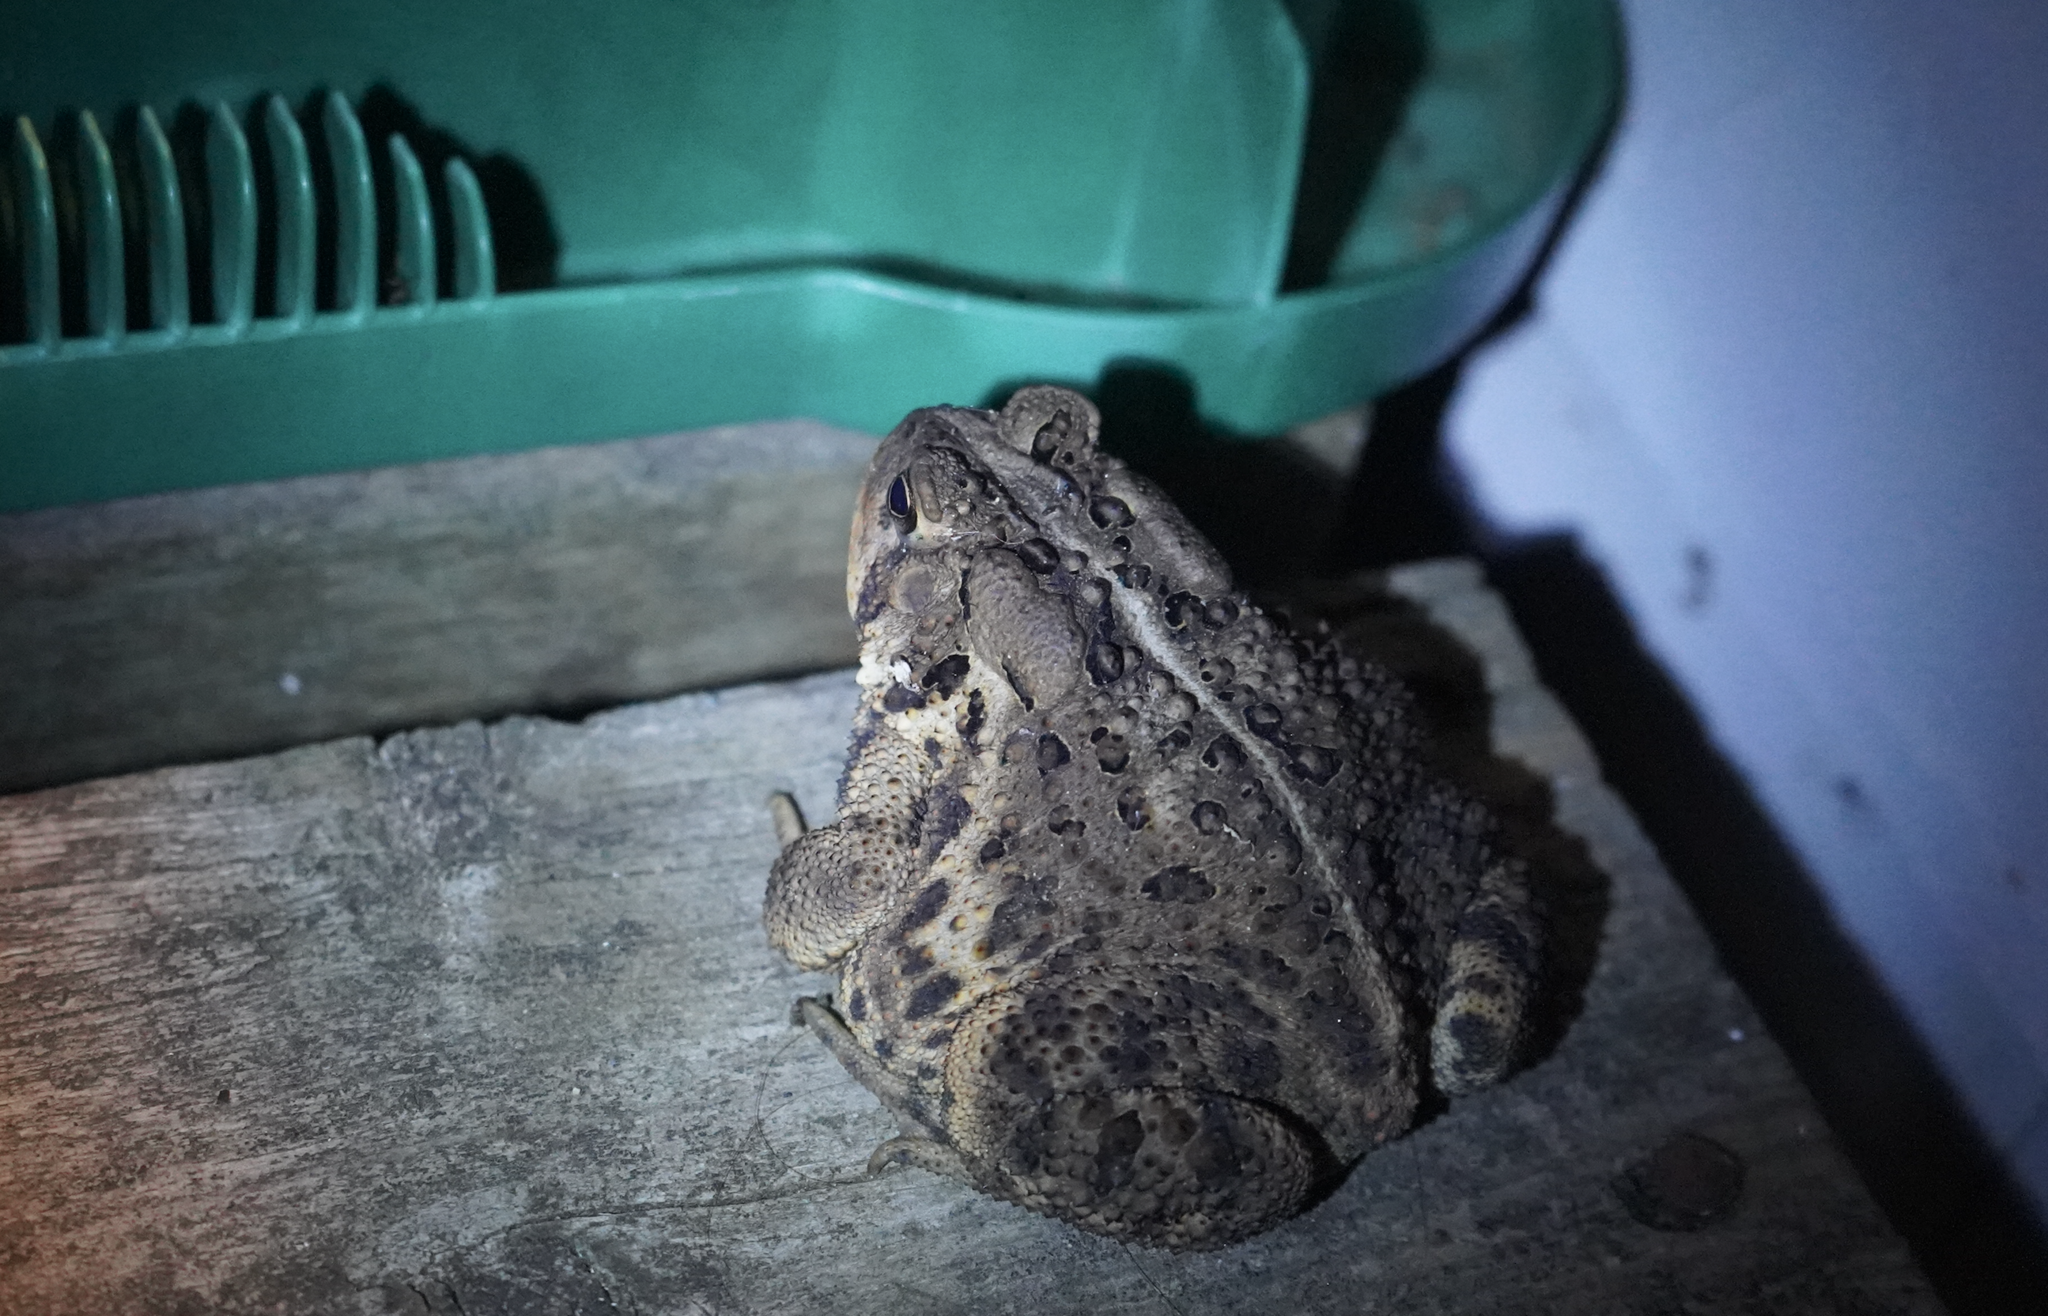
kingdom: Animalia
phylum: Chordata
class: Amphibia
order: Anura
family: Bufonidae
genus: Anaxyrus
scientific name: Anaxyrus americanus
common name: American toad
